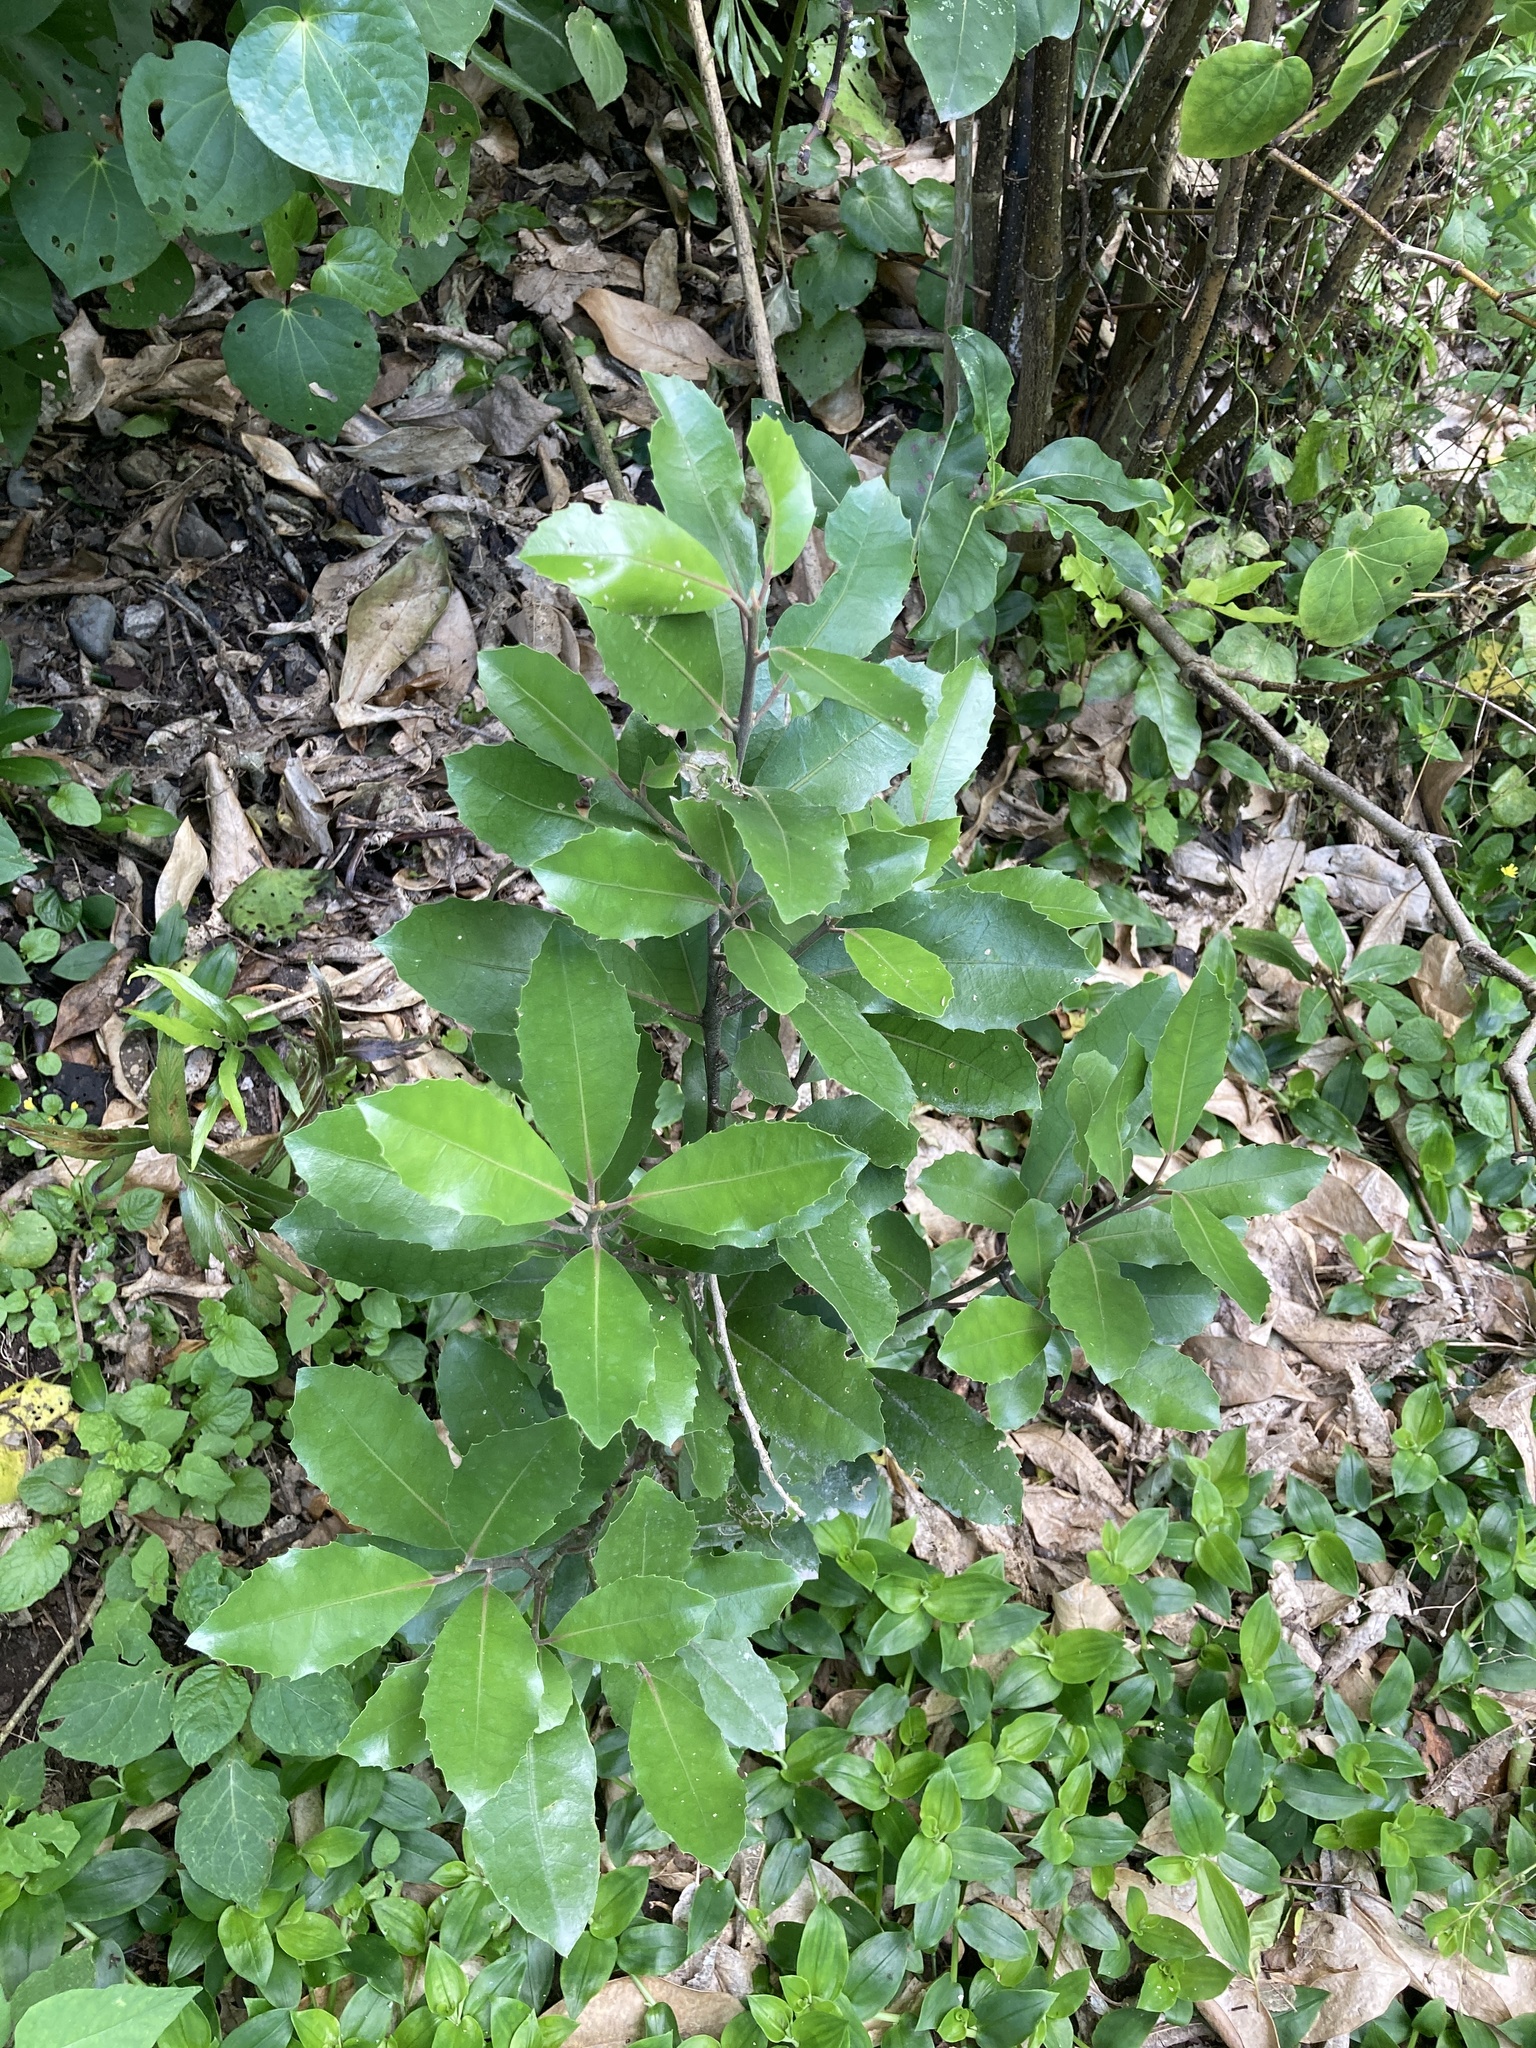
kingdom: Plantae
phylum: Tracheophyta
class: Magnoliopsida
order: Laurales
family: Monimiaceae
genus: Hedycarya
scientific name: Hedycarya arborea
